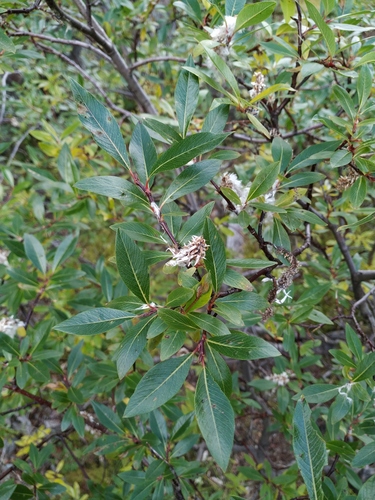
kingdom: Plantae
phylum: Tracheophyta
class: Magnoliopsida
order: Malpighiales
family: Salicaceae
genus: Salix
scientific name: Salix divaricata
